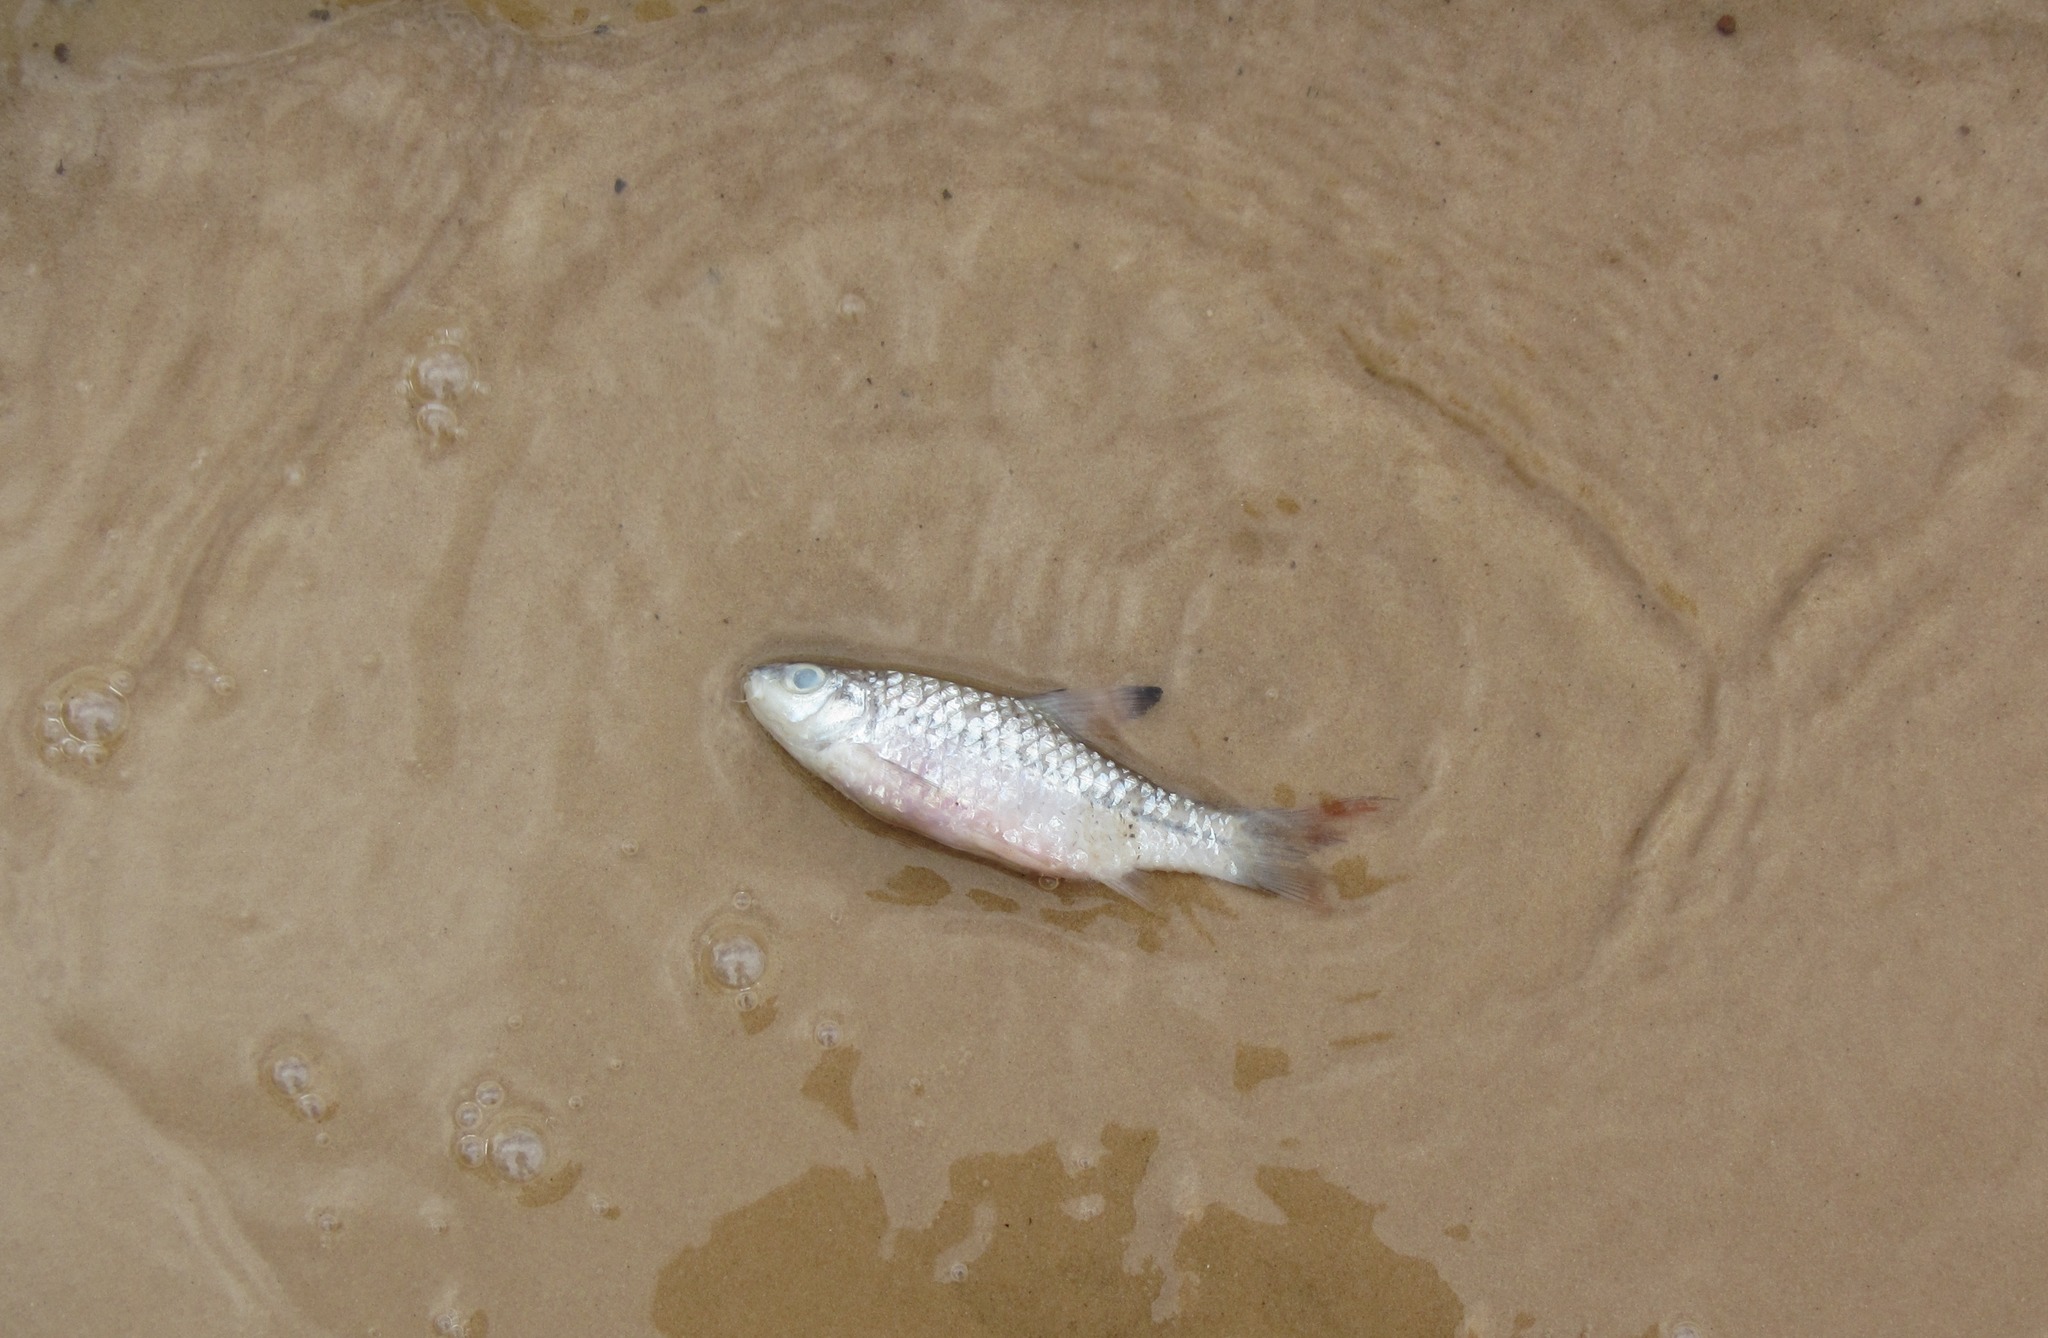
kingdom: Animalia
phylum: Chordata
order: Cypriniformes
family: Cyprinidae
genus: Enteromius
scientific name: Enteromius holotaenia
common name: Spotscale barb
